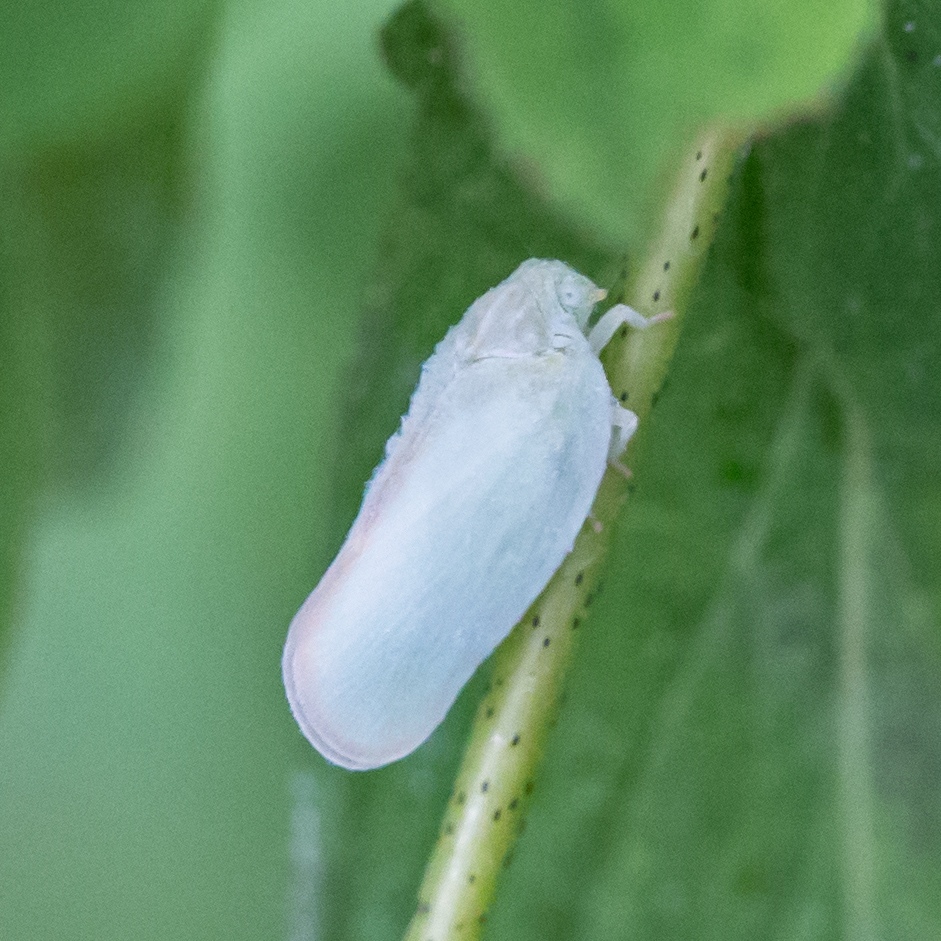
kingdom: Animalia
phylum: Arthropoda
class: Insecta
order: Hemiptera
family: Flatidae
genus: Ormenoides
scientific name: Ormenoides venusta
